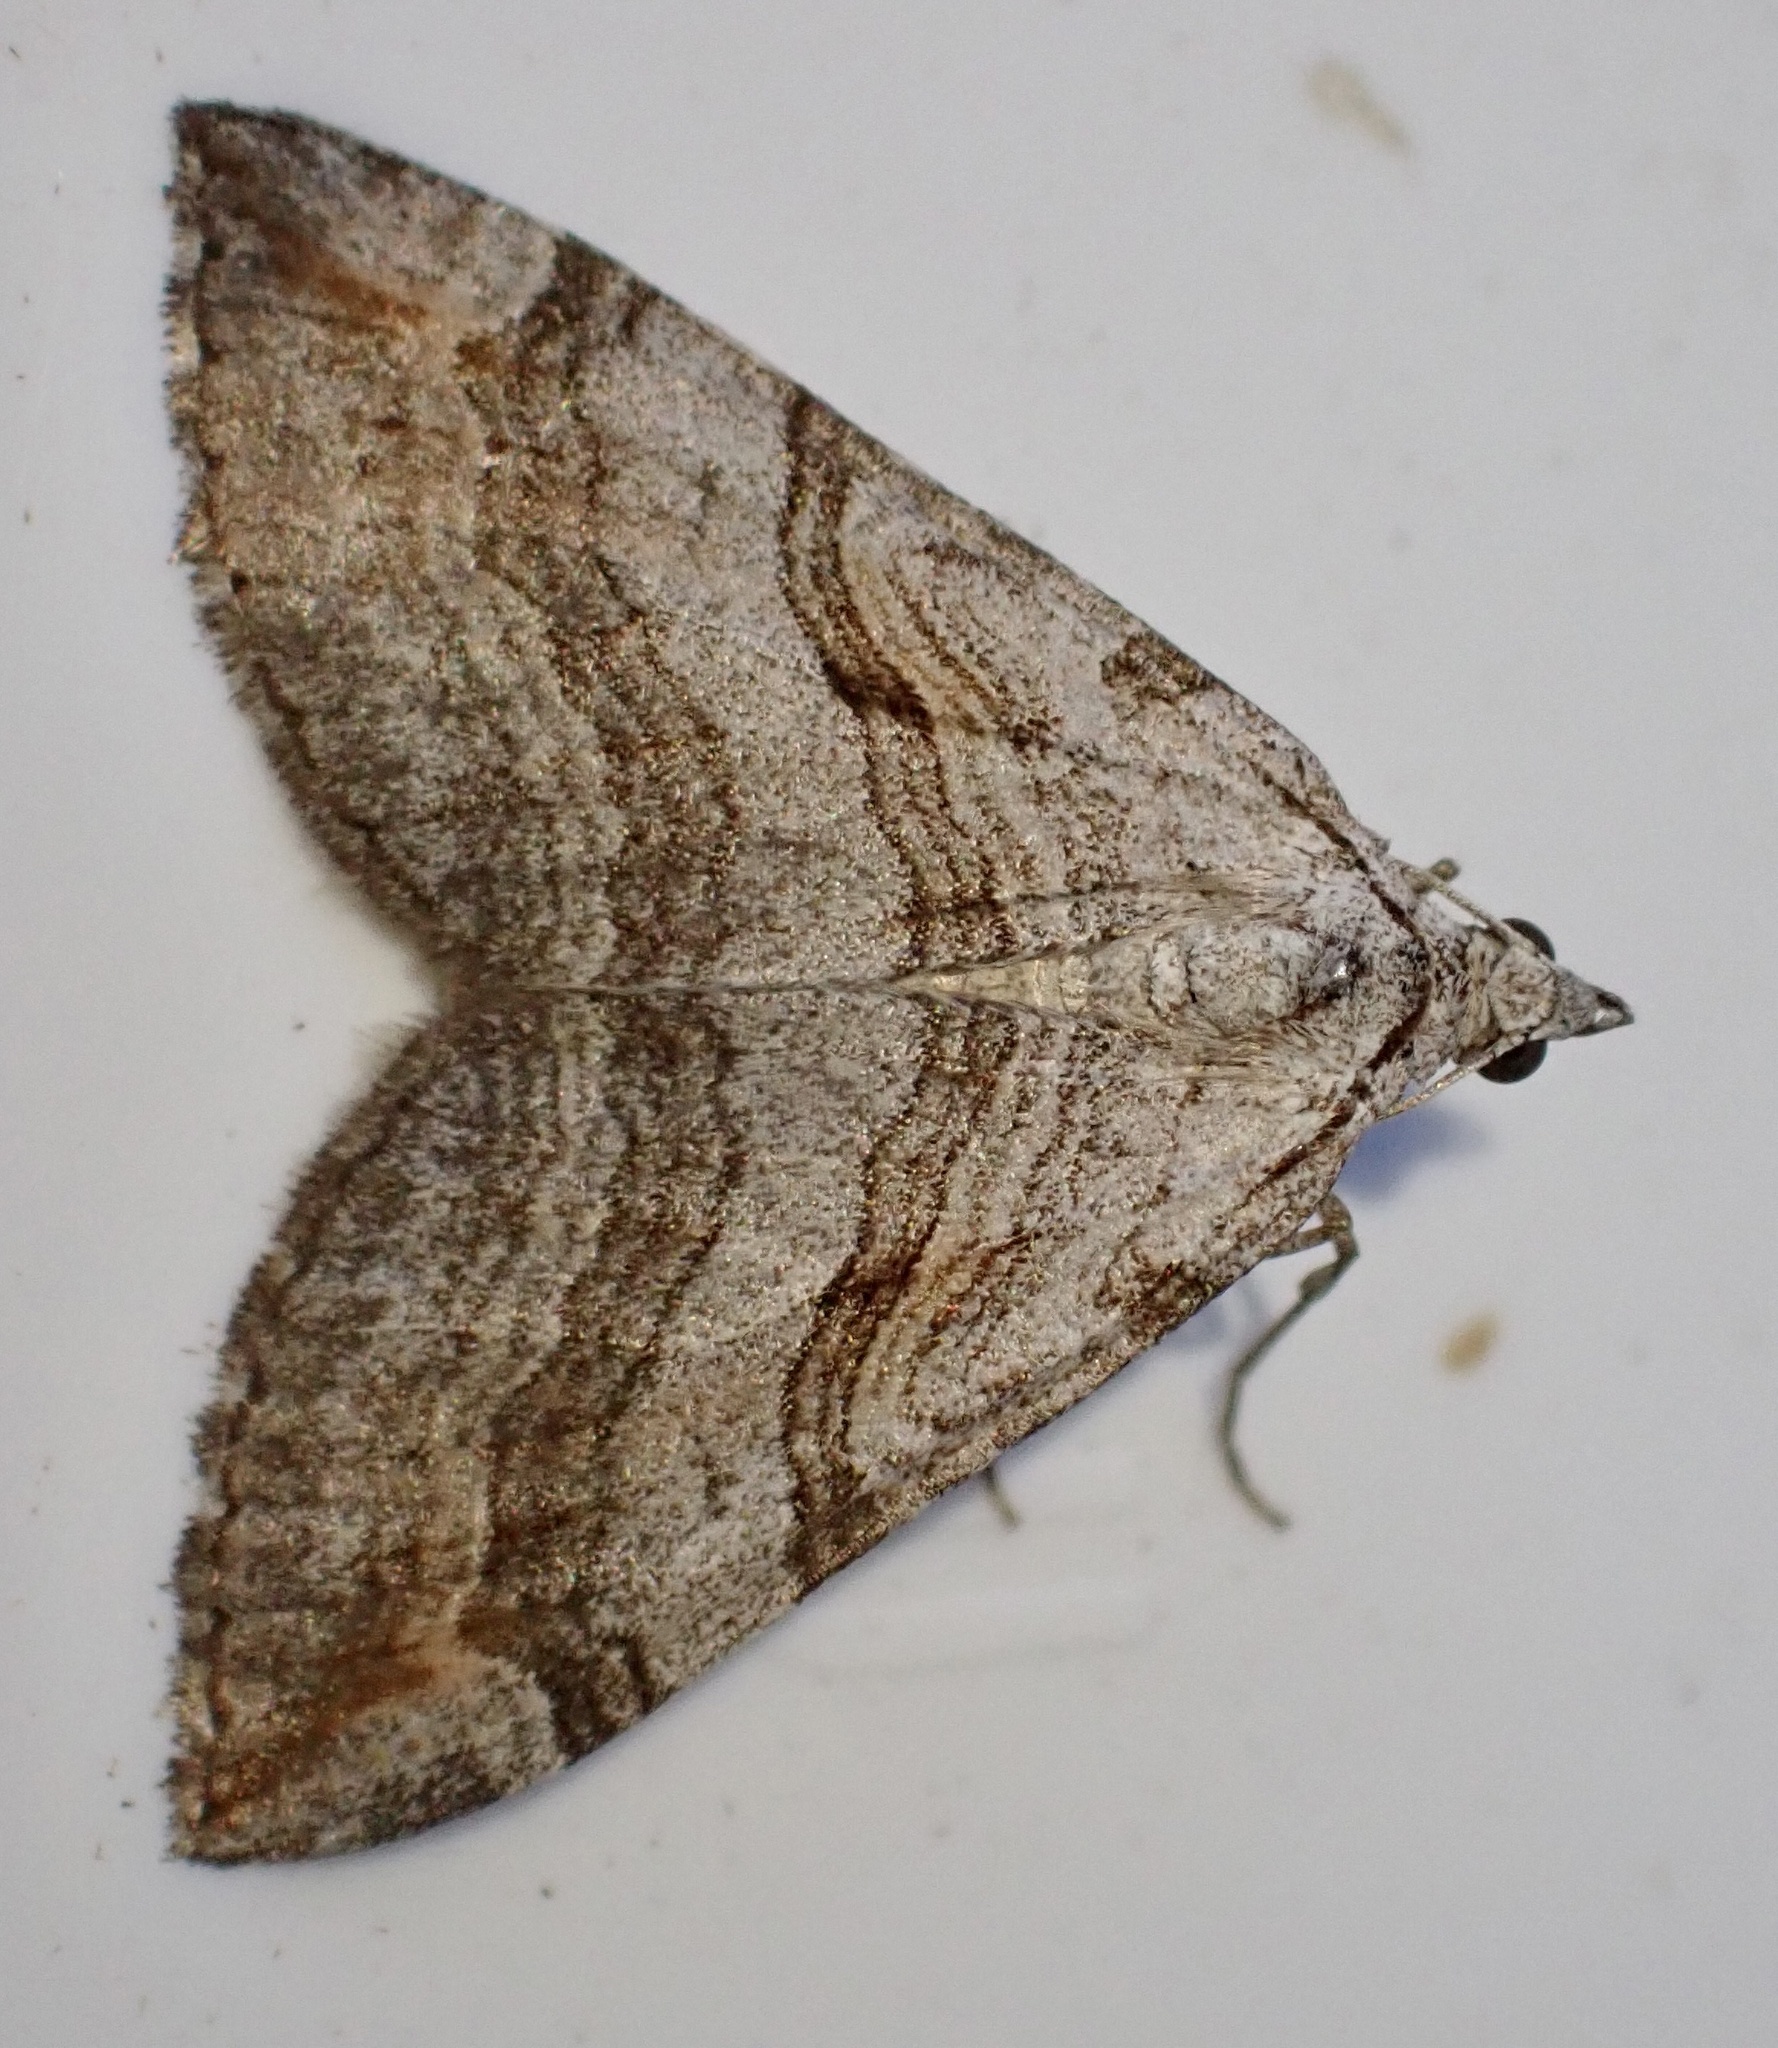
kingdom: Animalia
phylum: Arthropoda
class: Insecta
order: Lepidoptera
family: Geometridae
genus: Aplocera
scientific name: Aplocera plagiata
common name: Treble-bar
